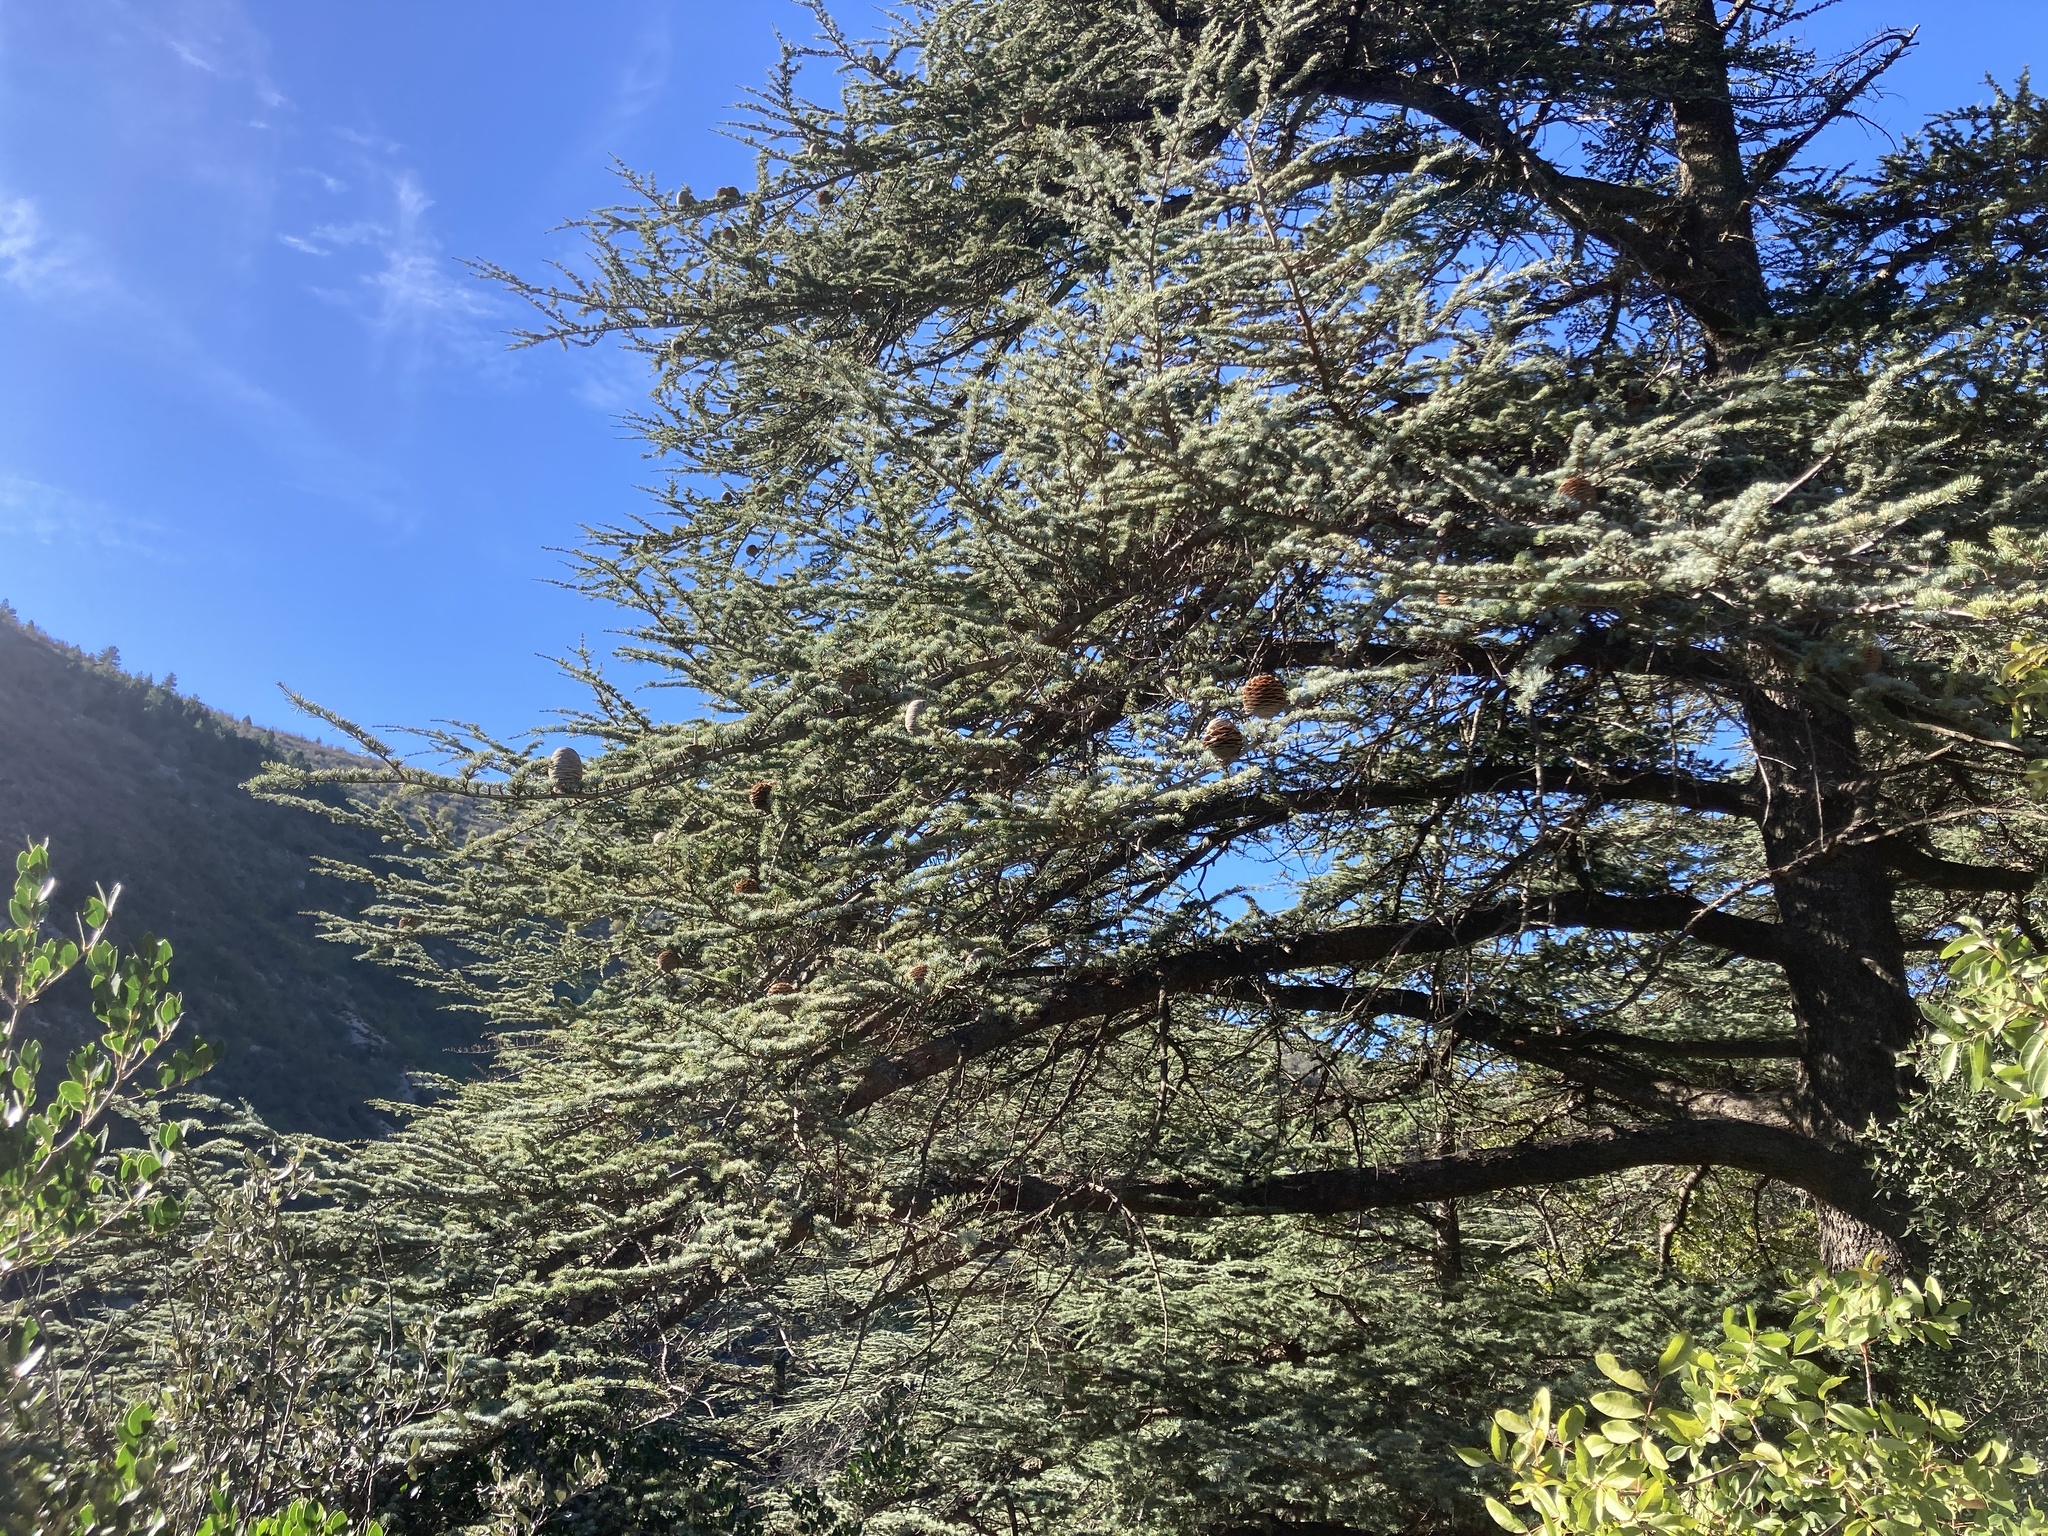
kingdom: Plantae
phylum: Tracheophyta
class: Pinopsida
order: Pinales
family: Pinaceae
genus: Cedrus
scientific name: Cedrus atlantica
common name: Atlas cedar
